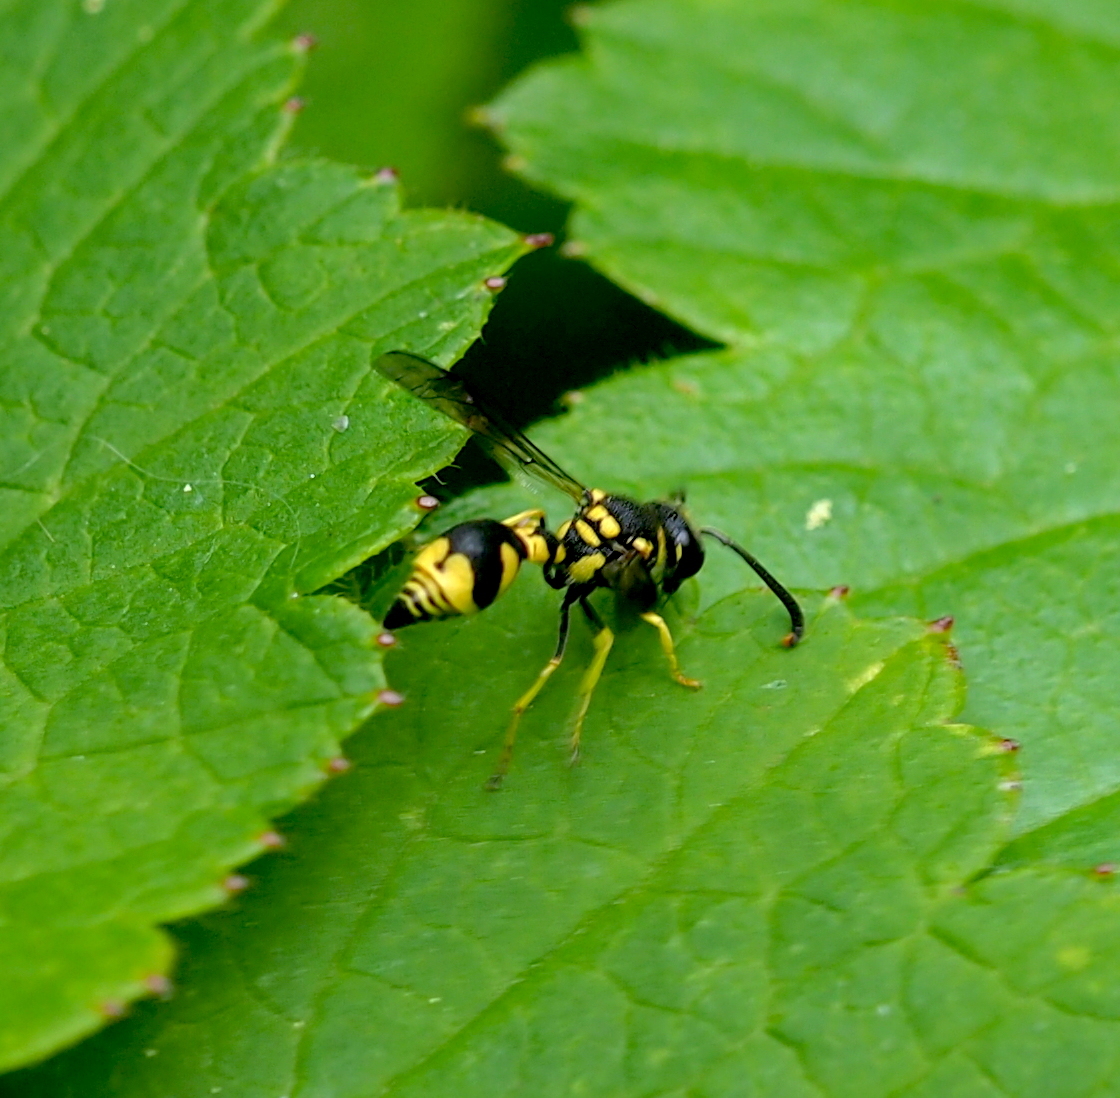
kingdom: Animalia
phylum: Arthropoda
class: Insecta
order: Hymenoptera
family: Vespidae
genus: Eumenes
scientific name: Eumenes mediterraneus
